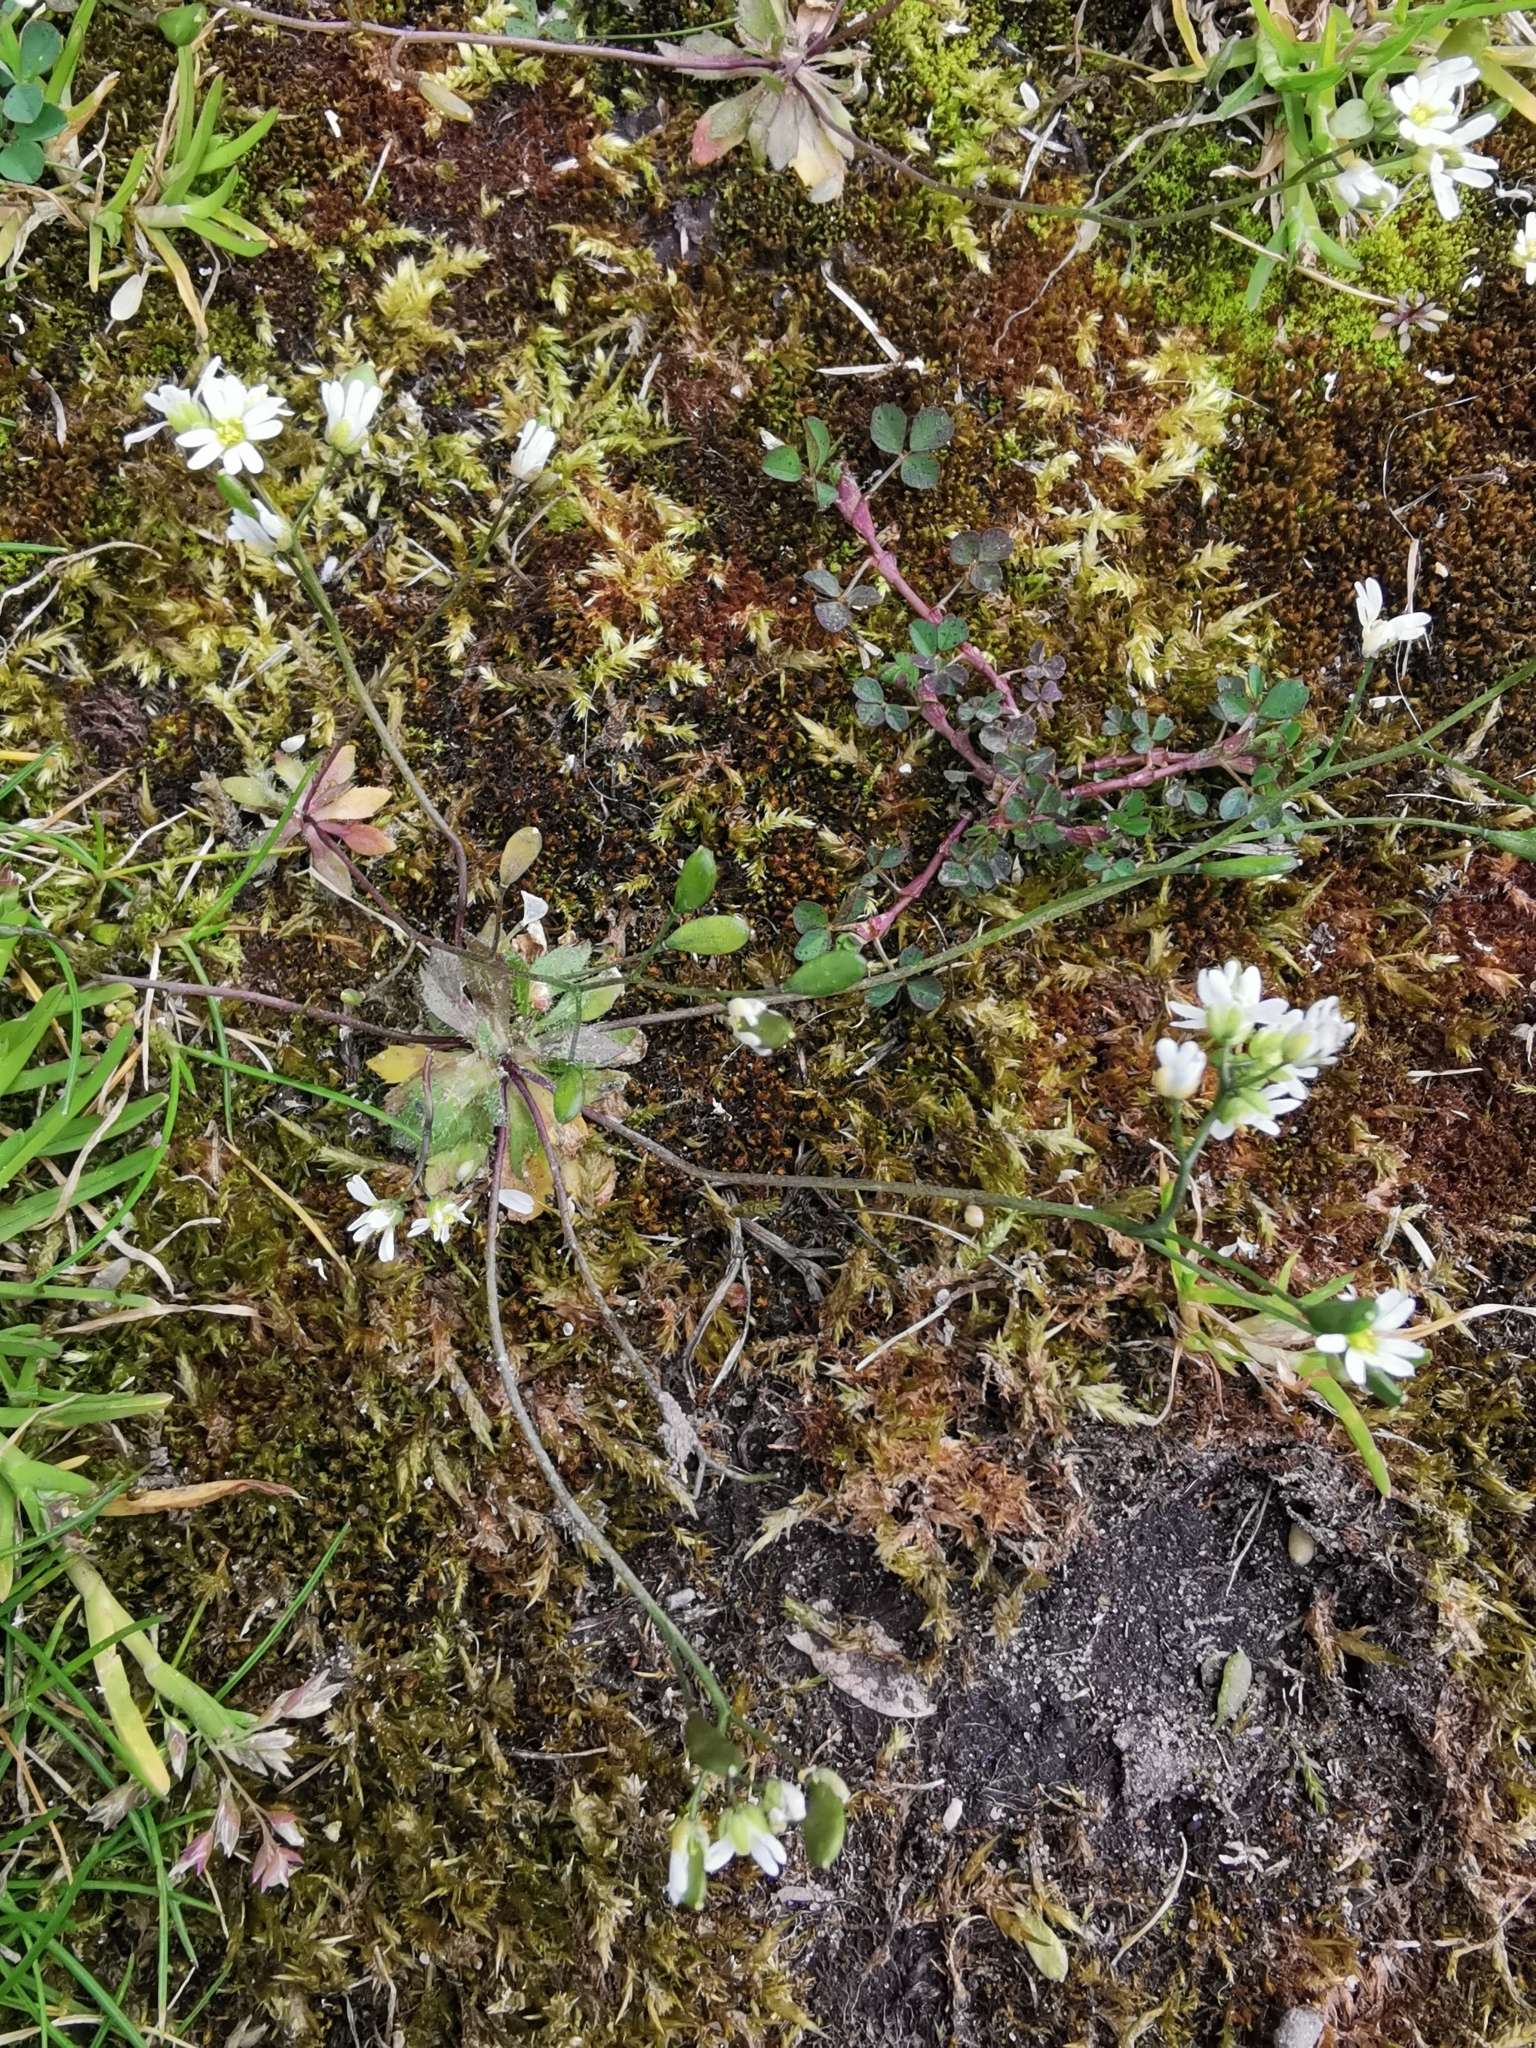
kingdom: Plantae
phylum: Tracheophyta
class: Magnoliopsida
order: Brassicales
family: Brassicaceae
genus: Draba
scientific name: Draba verna
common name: Spring draba
